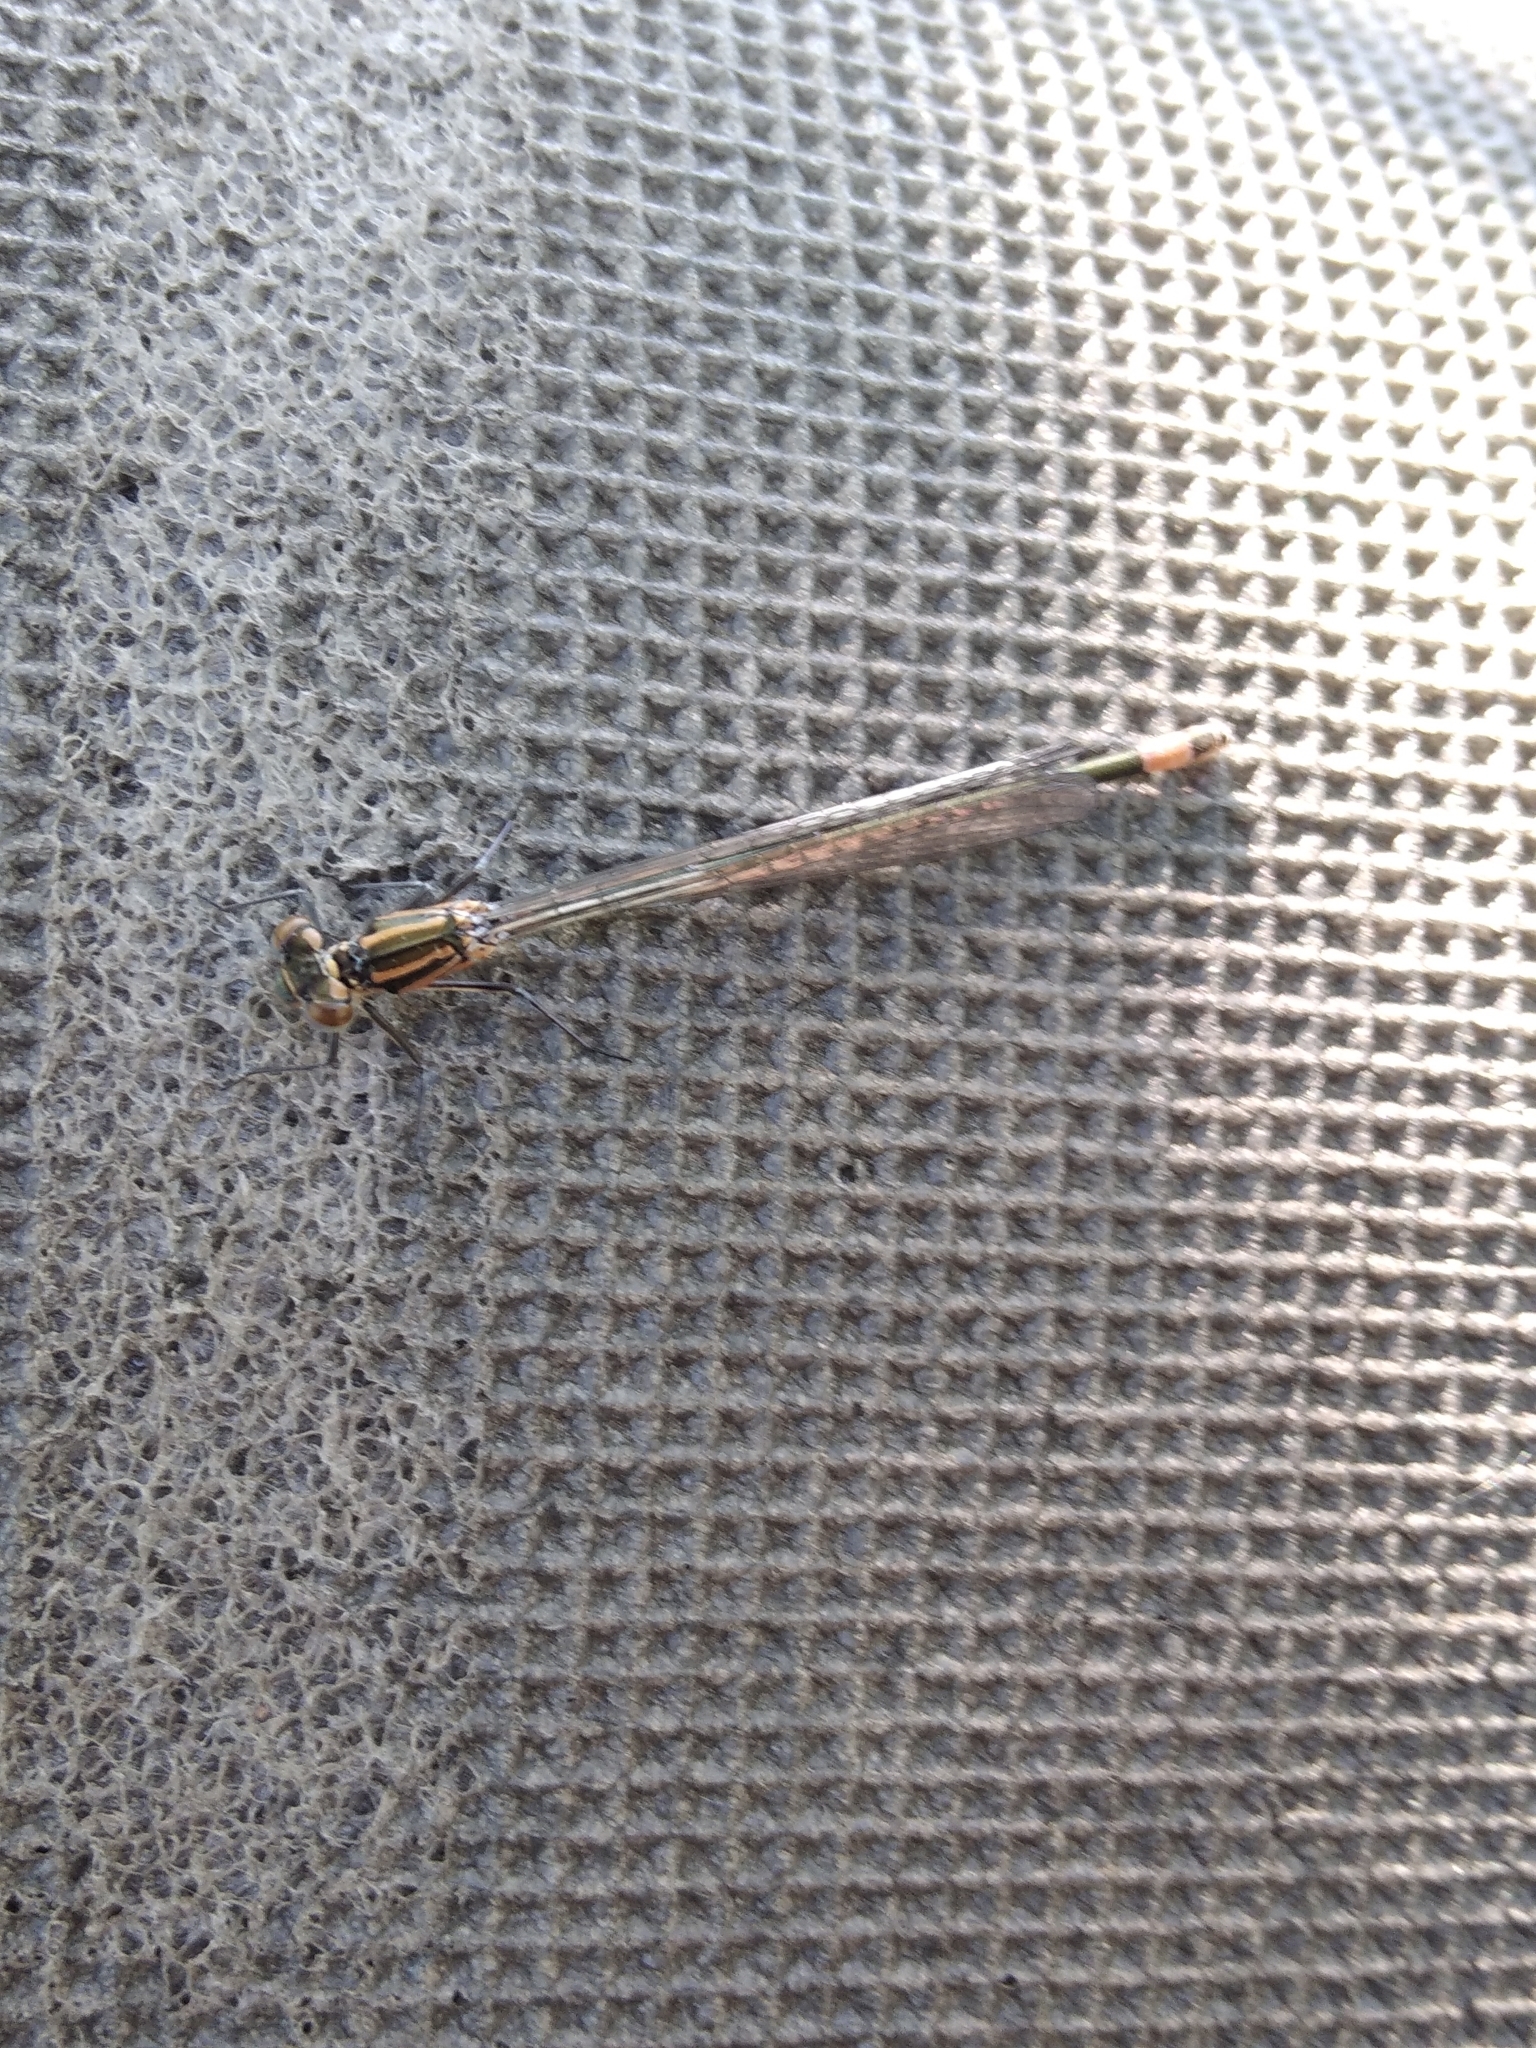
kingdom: Animalia
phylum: Arthropoda
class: Insecta
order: Odonata
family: Coenagrionidae
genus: Coenagrion
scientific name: Coenagrion puella
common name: Azure damselfly
